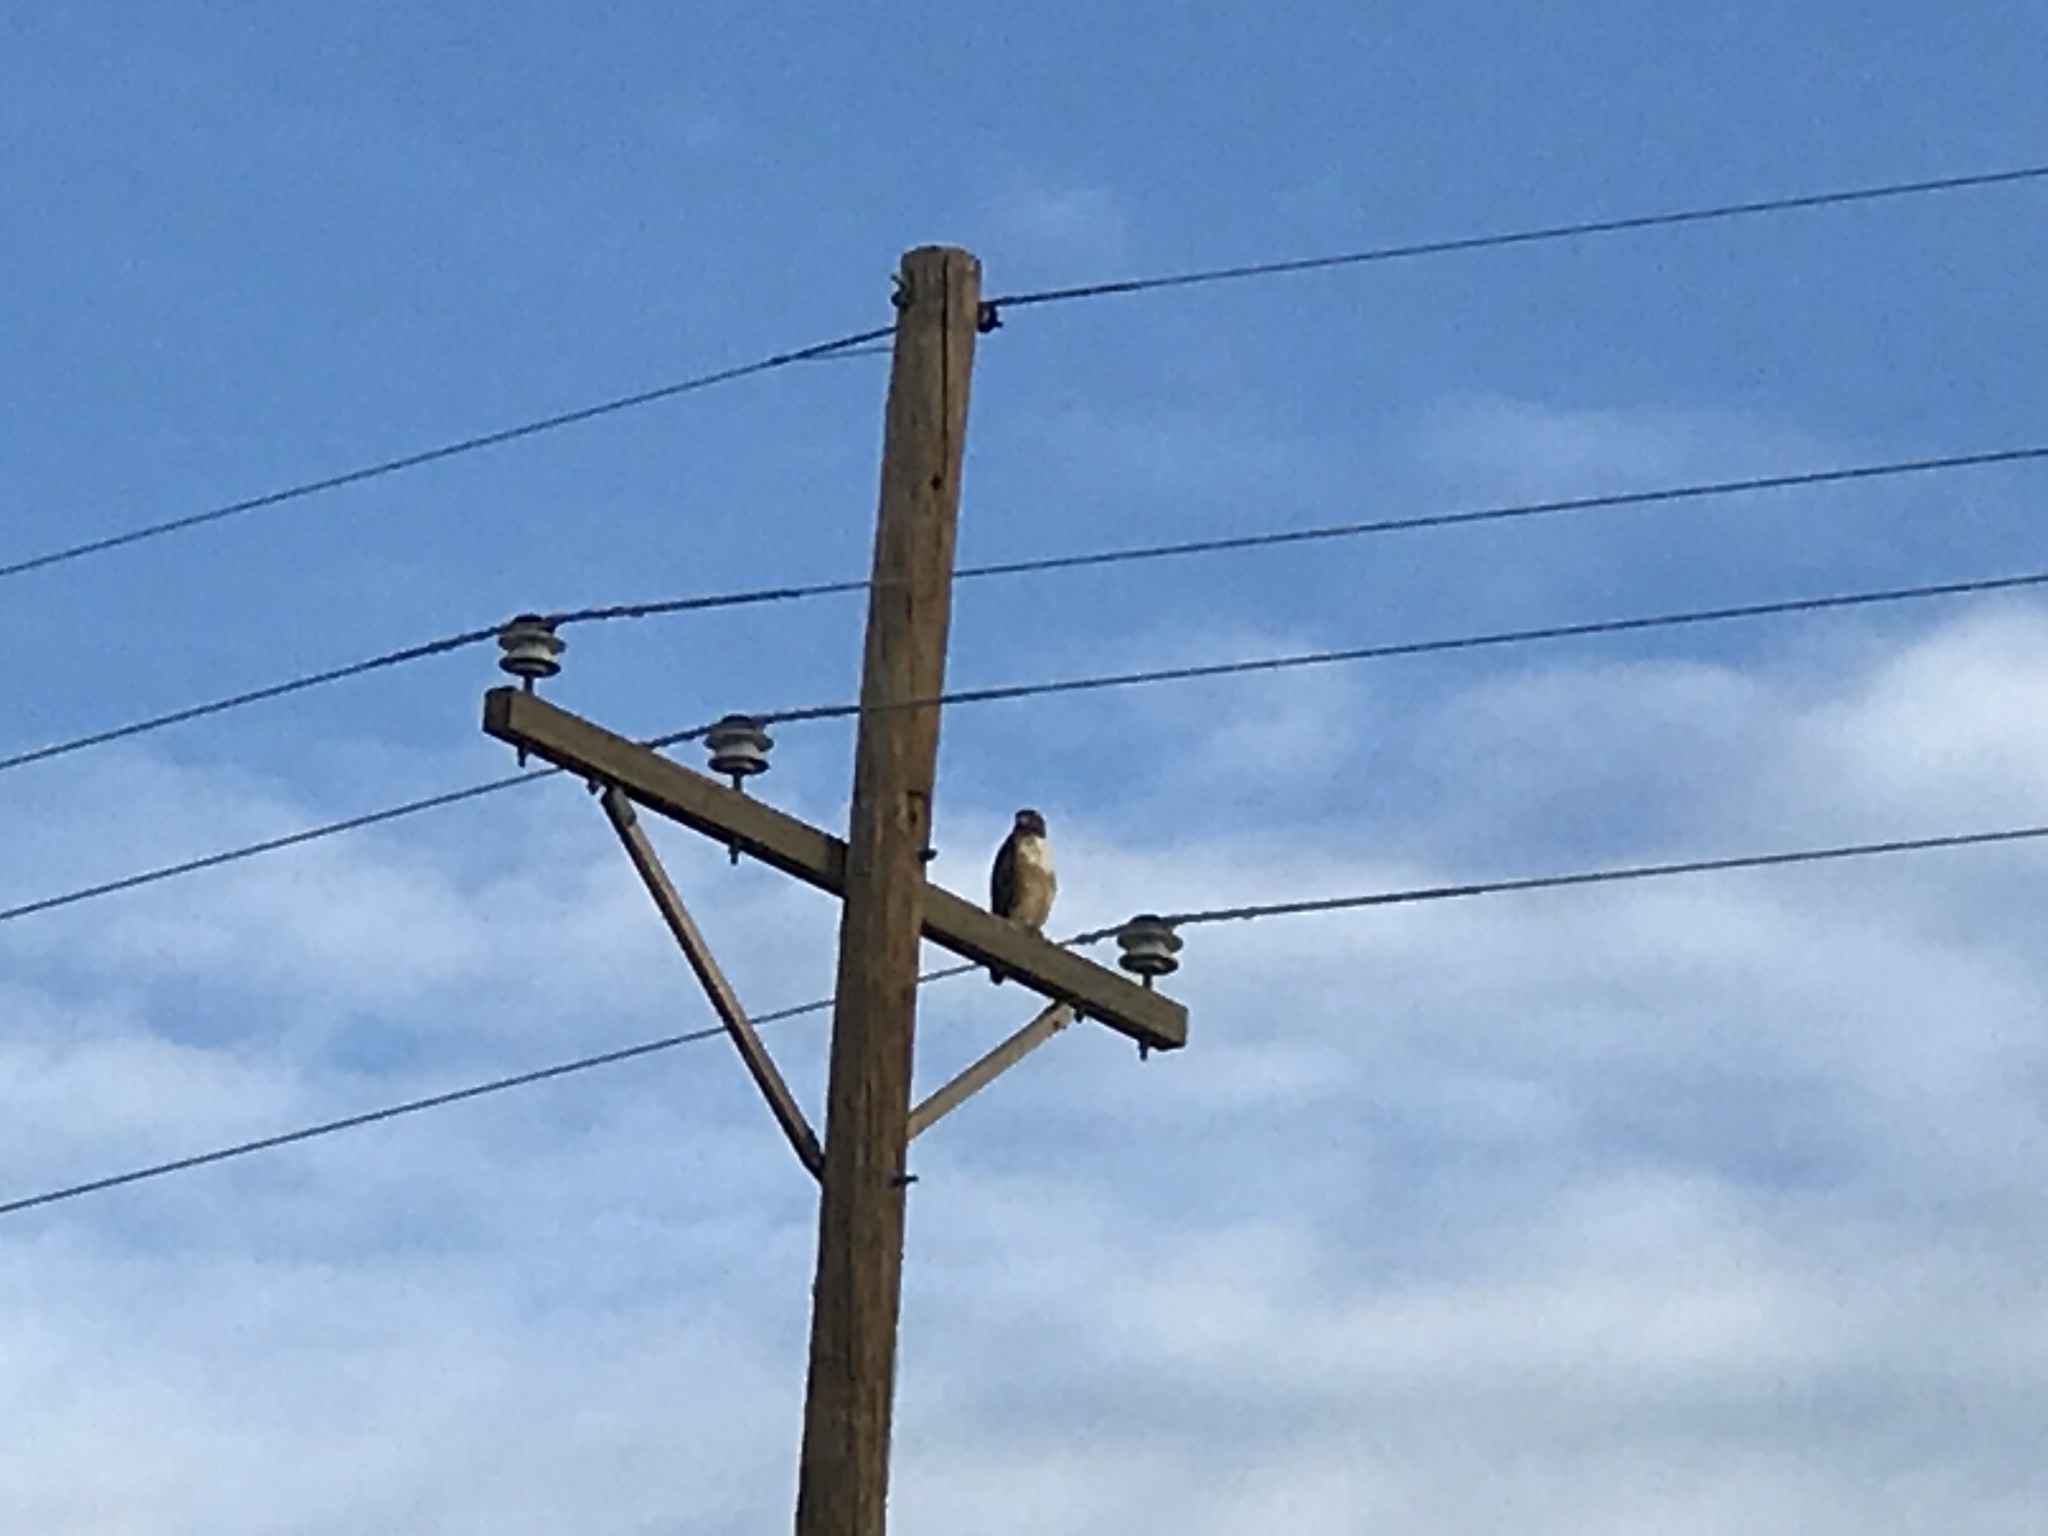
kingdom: Animalia
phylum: Chordata
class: Aves
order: Accipitriformes
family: Accipitridae
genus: Buteo
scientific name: Buteo jamaicensis
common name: Red-tailed hawk
